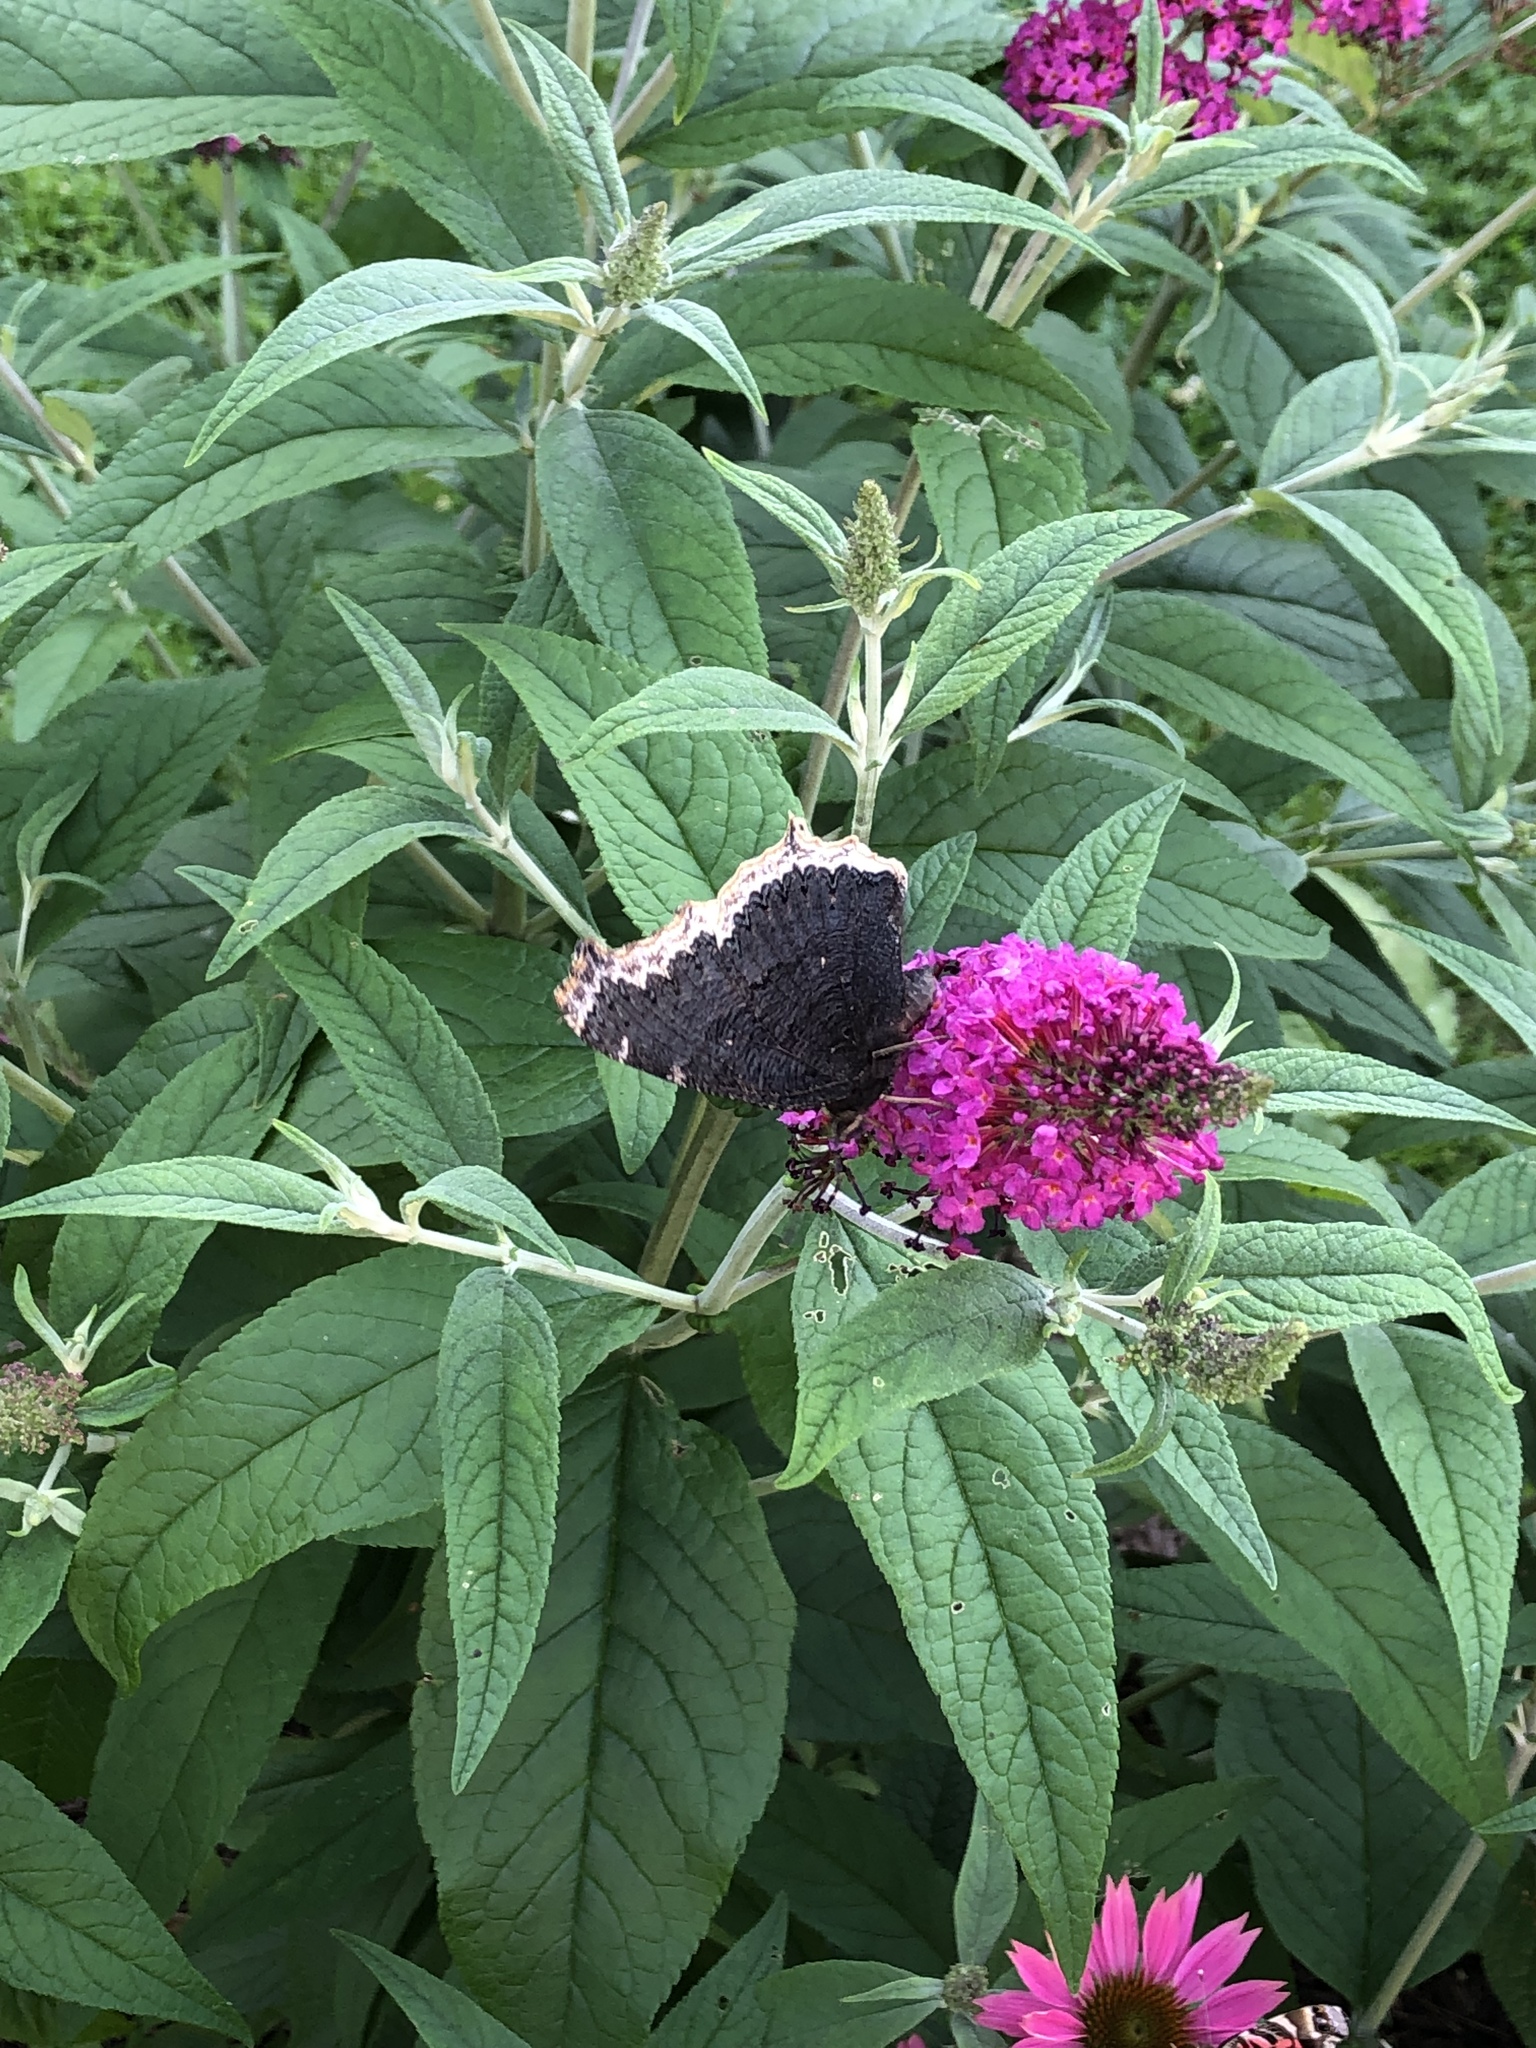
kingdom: Animalia
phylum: Arthropoda
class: Insecta
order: Lepidoptera
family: Nymphalidae
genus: Nymphalis
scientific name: Nymphalis antiopa
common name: Camberwell beauty
